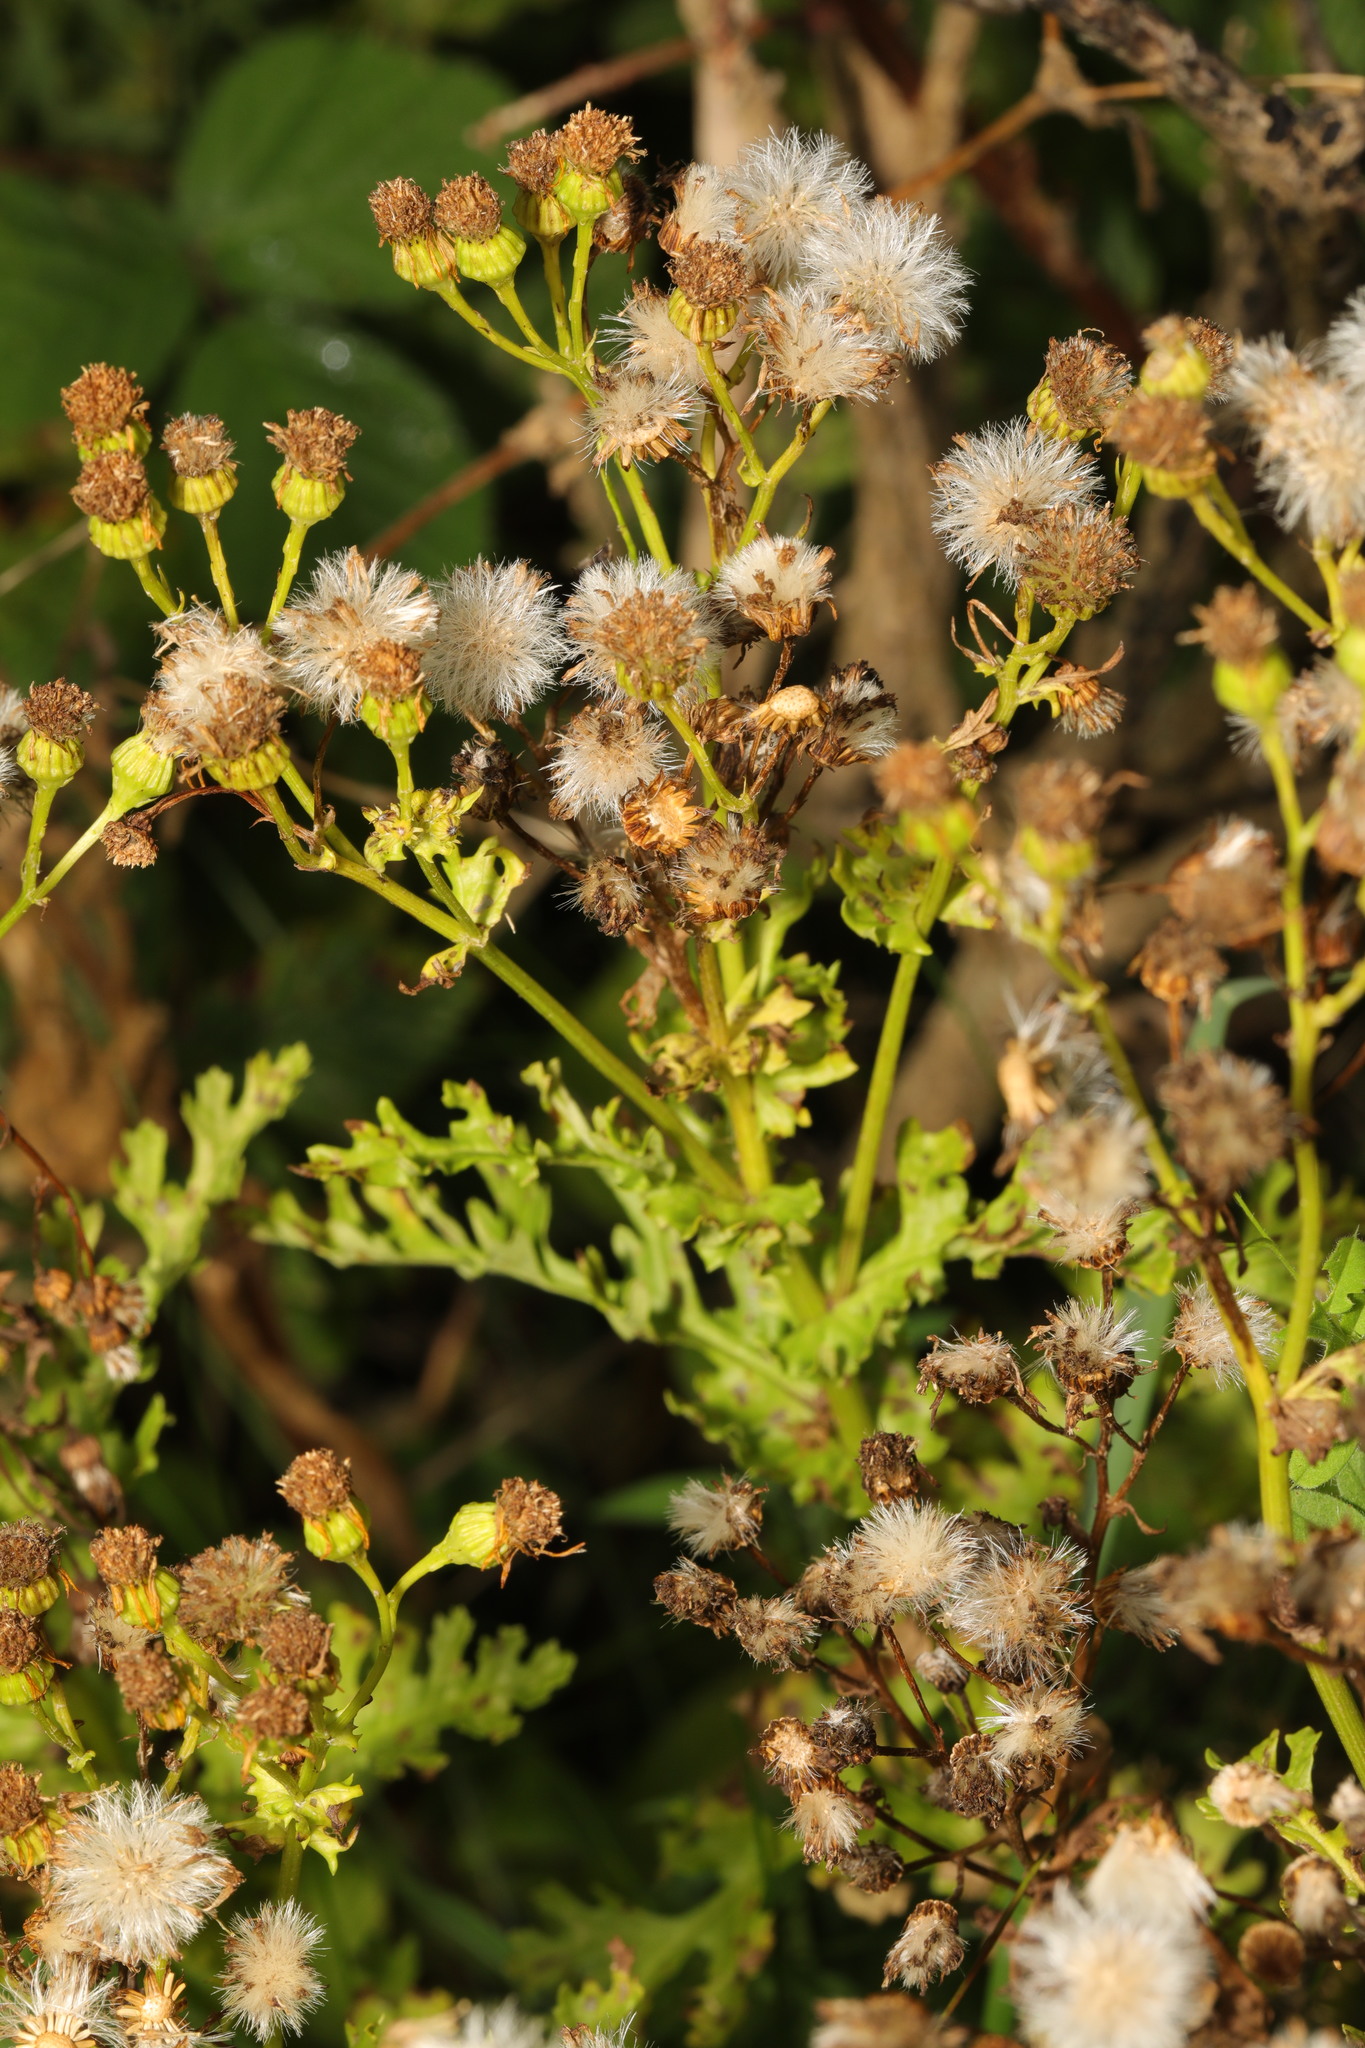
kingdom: Plantae
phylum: Tracheophyta
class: Magnoliopsida
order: Asterales
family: Asteraceae
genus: Jacobaea
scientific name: Jacobaea vulgaris
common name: Stinking willie
